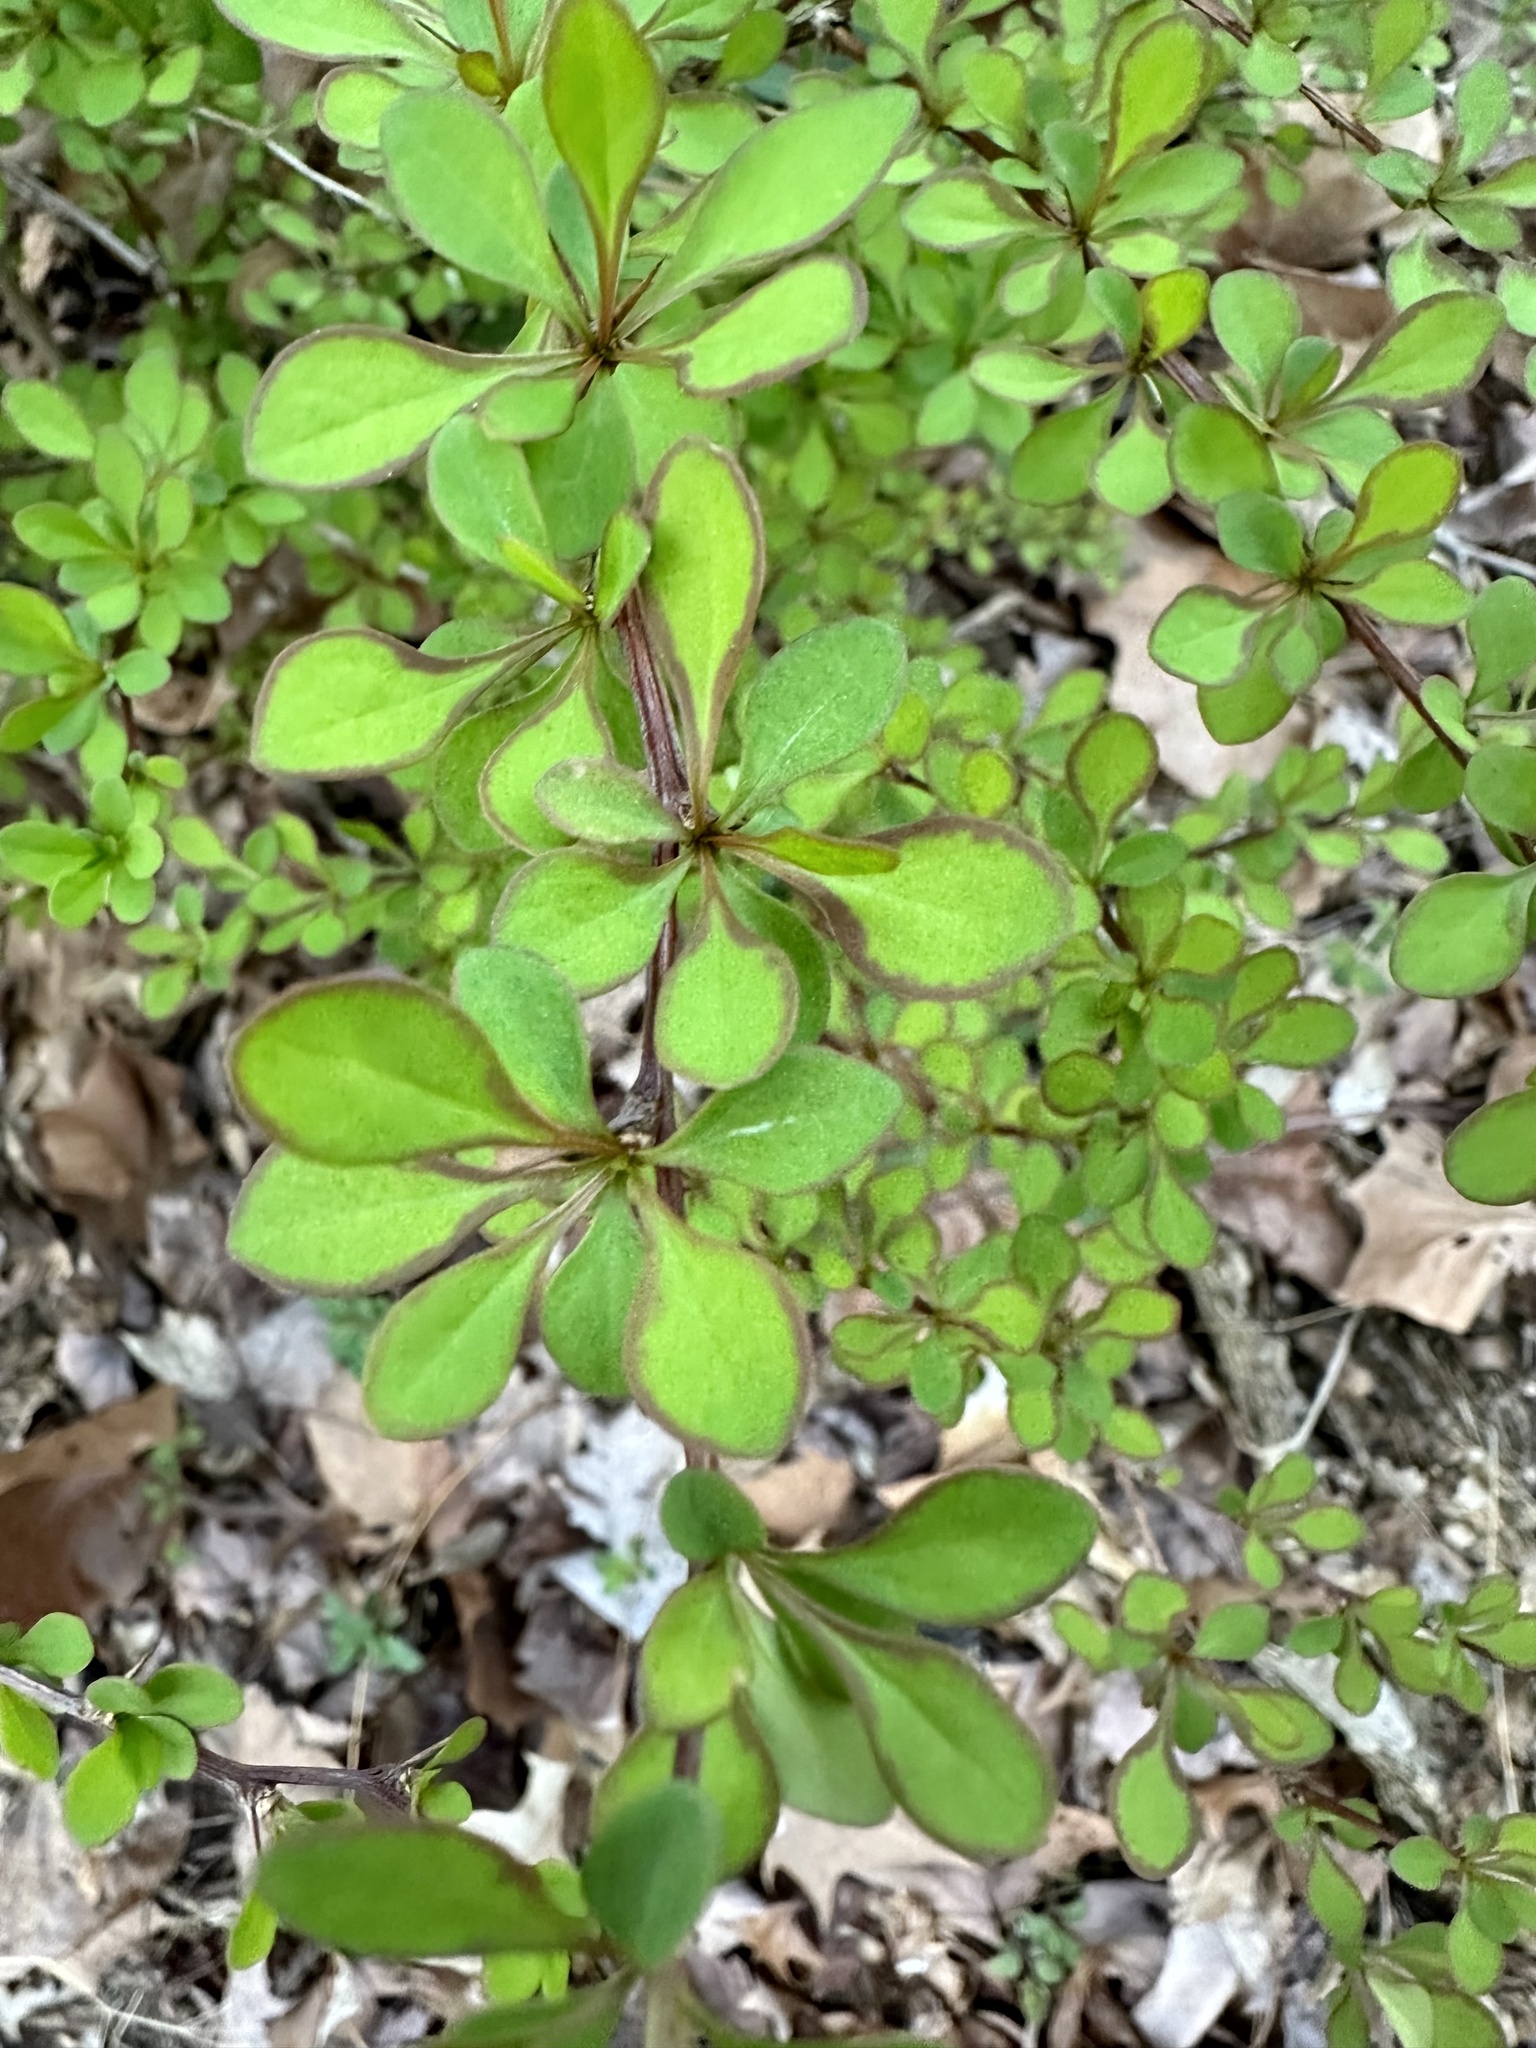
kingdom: Plantae
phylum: Tracheophyta
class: Magnoliopsida
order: Ranunculales
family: Berberidaceae
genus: Berberis
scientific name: Berberis thunbergii
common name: Japanese barberry
